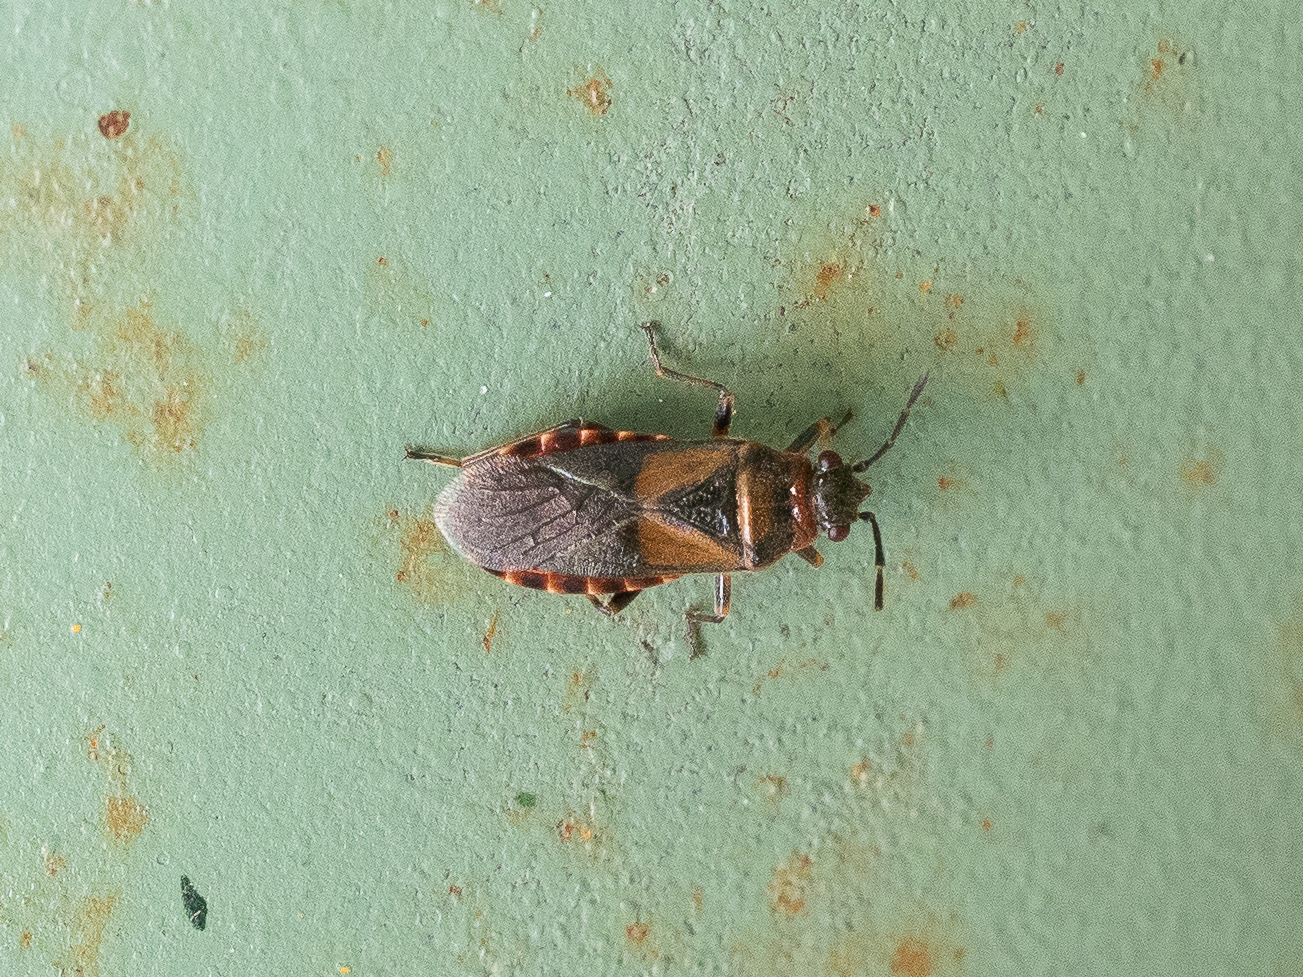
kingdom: Animalia
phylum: Arthropoda
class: Insecta
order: Hemiptera
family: Lygaeidae
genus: Arocatus
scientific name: Arocatus melanocephalus
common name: Lygaeid bug
